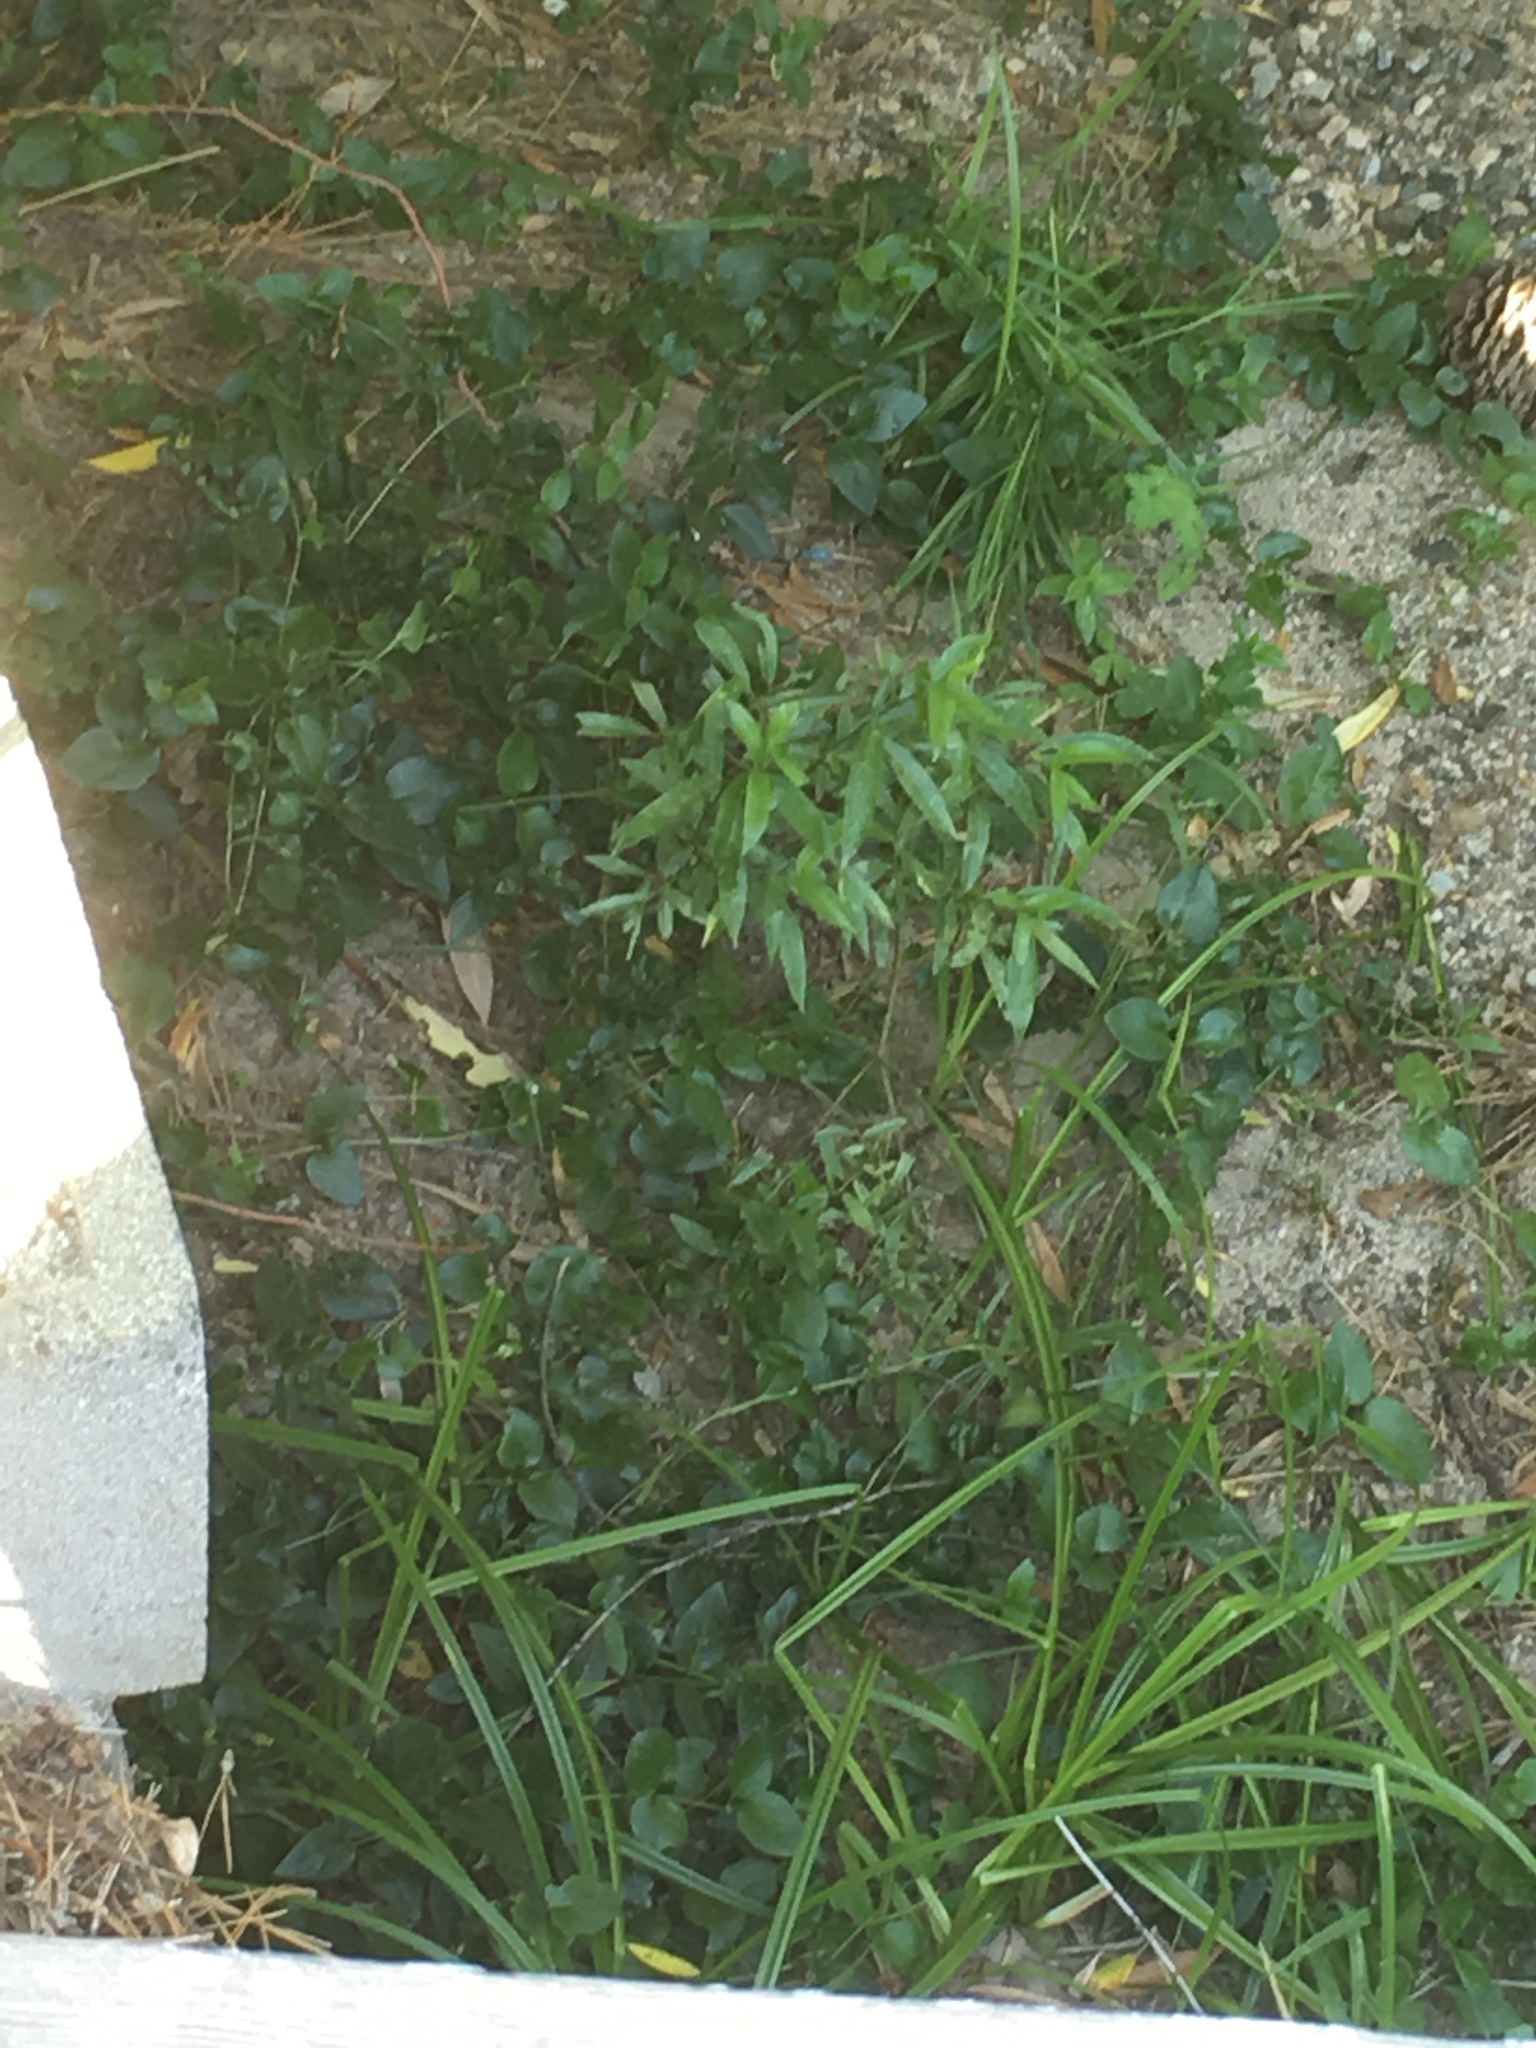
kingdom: Plantae
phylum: Tracheophyta
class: Magnoliopsida
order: Gentianales
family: Apocynaceae
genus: Vinca
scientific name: Vinca major
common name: Greater periwinkle
